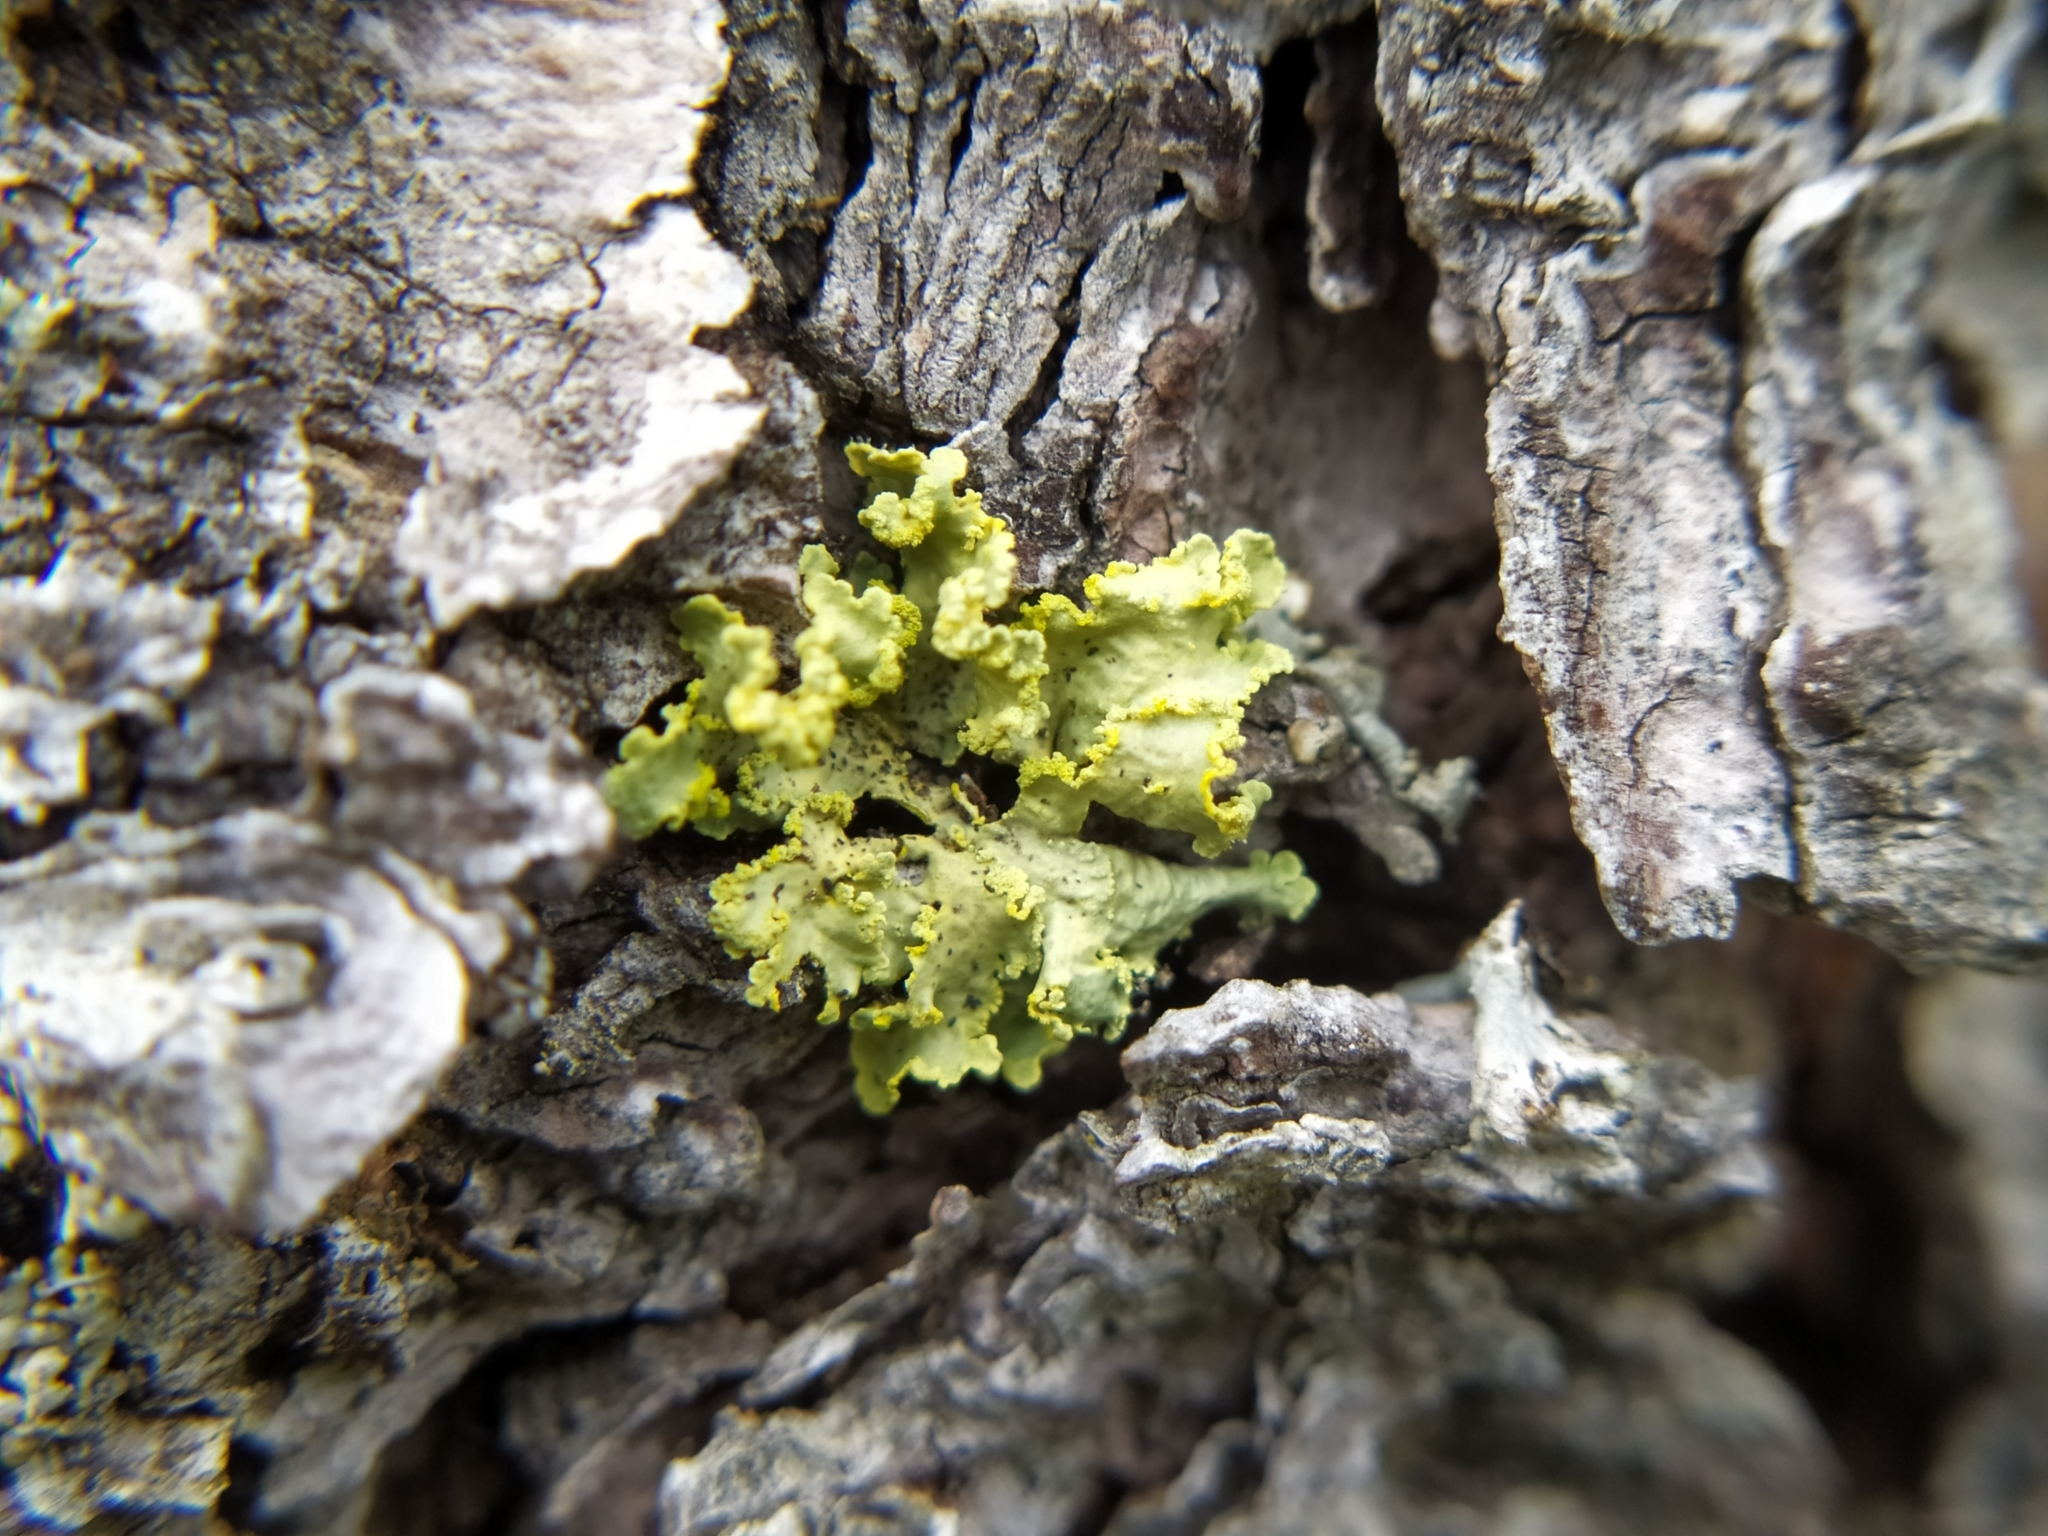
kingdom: Fungi
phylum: Ascomycota
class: Lecanoromycetes
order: Lecanorales
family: Parmeliaceae
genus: Vulpicida
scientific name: Vulpicida pinastri
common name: Powdered sunshine lichen
